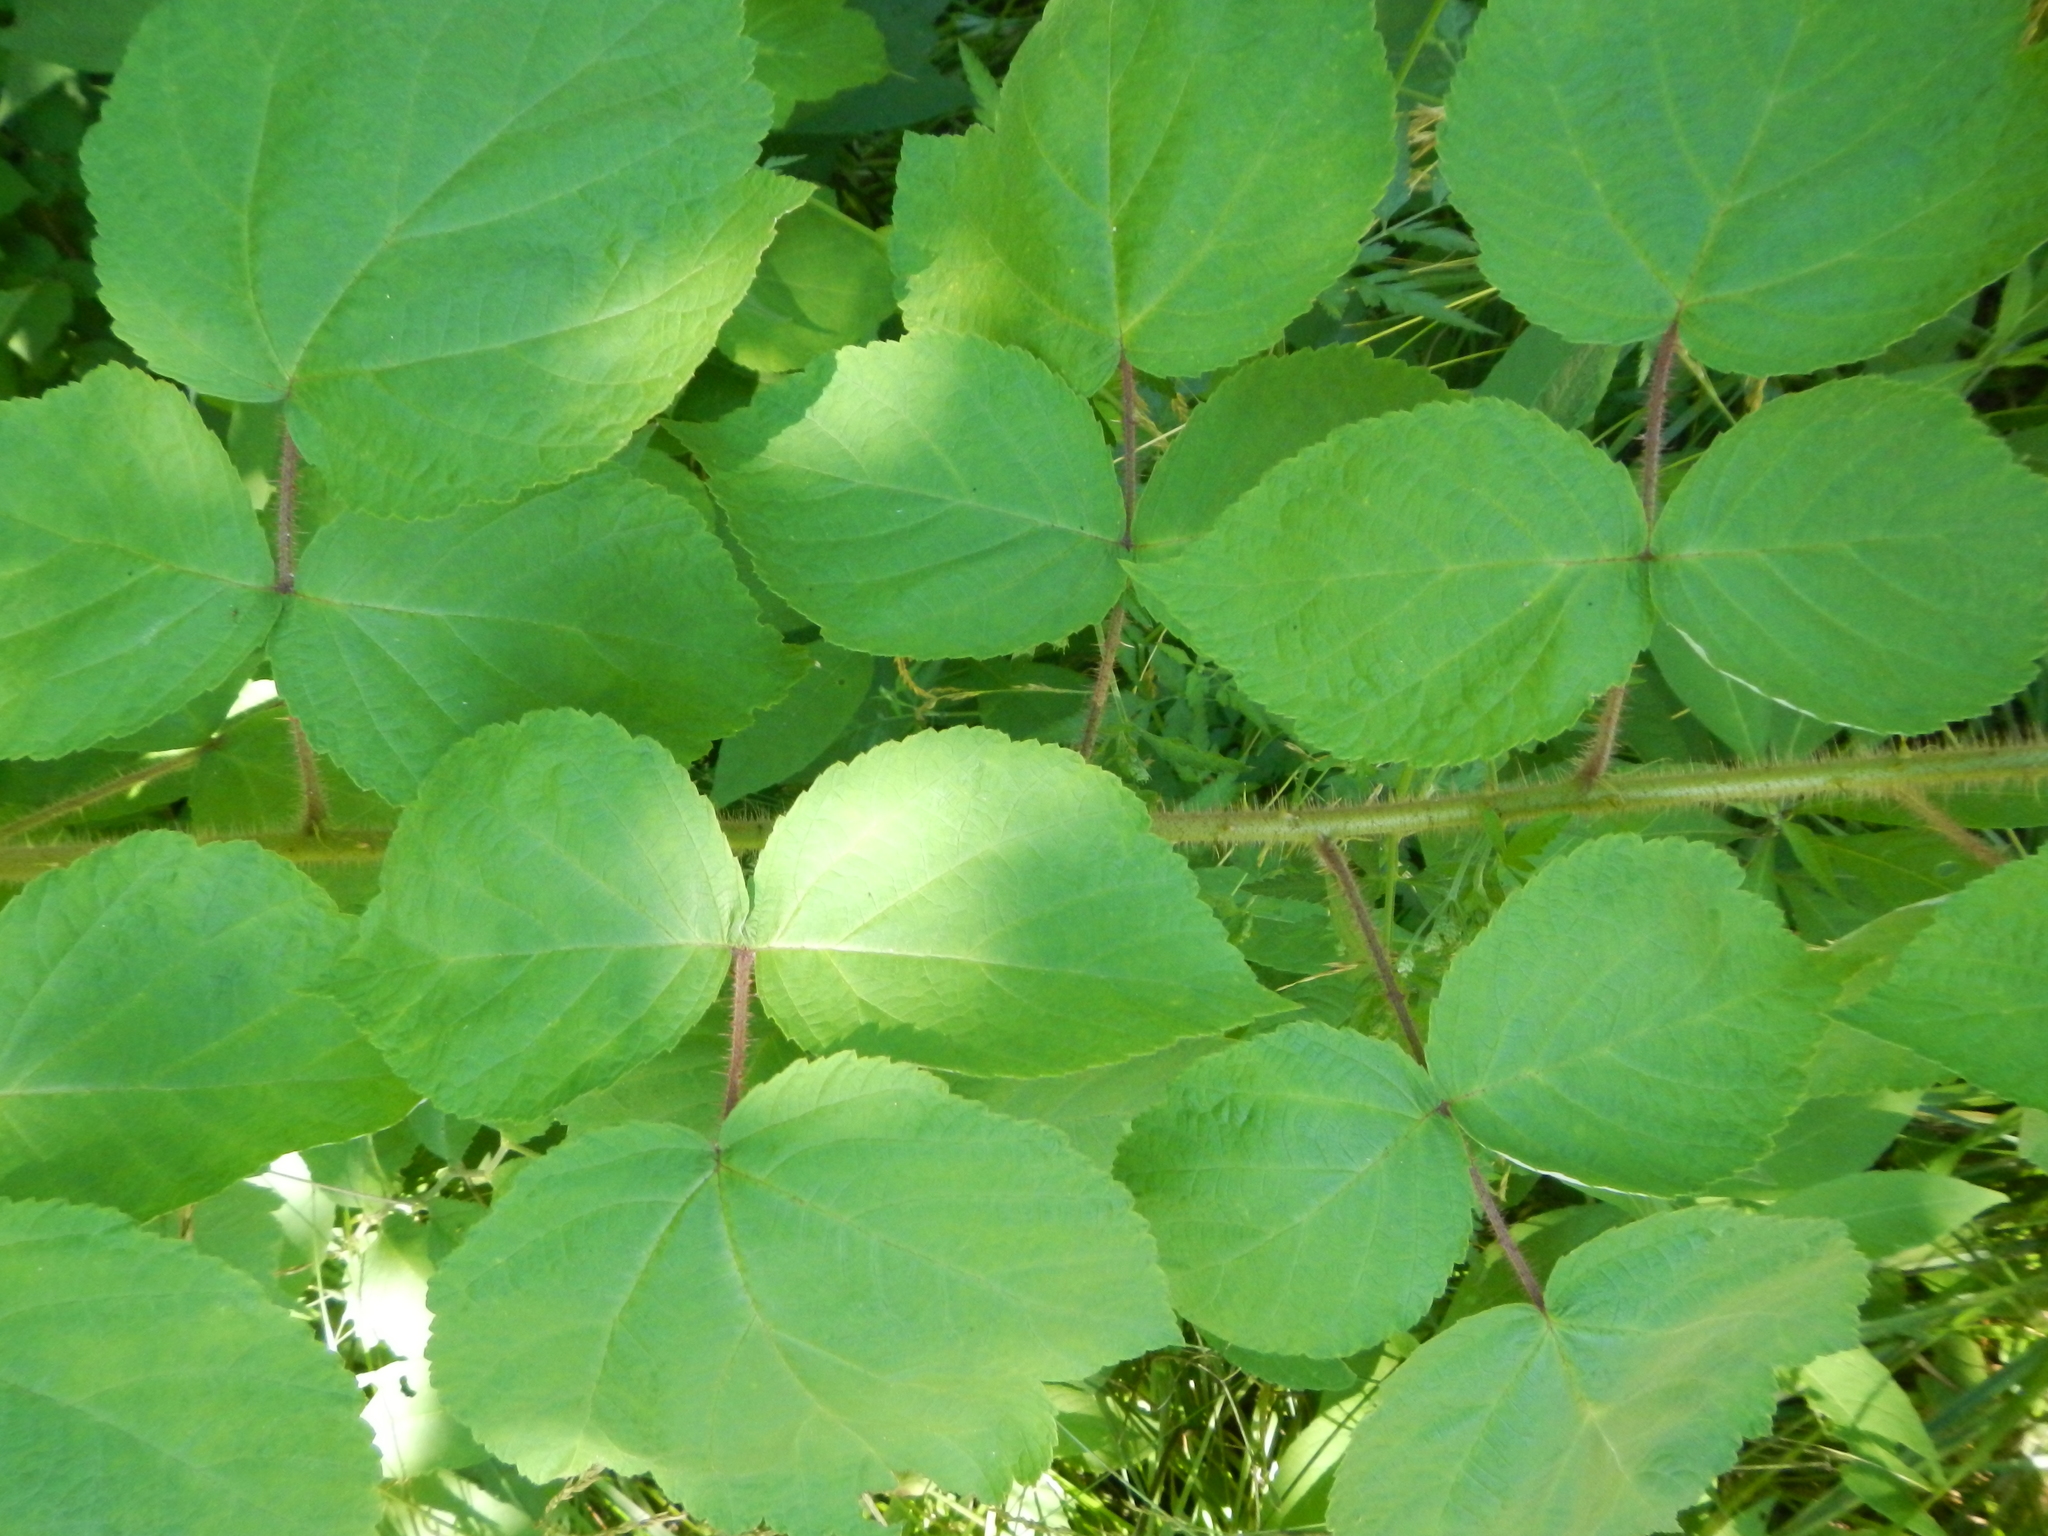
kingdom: Plantae
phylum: Tracheophyta
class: Magnoliopsida
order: Rosales
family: Rosaceae
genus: Rubus
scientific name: Rubus phoenicolasius
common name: Japanese wineberry
